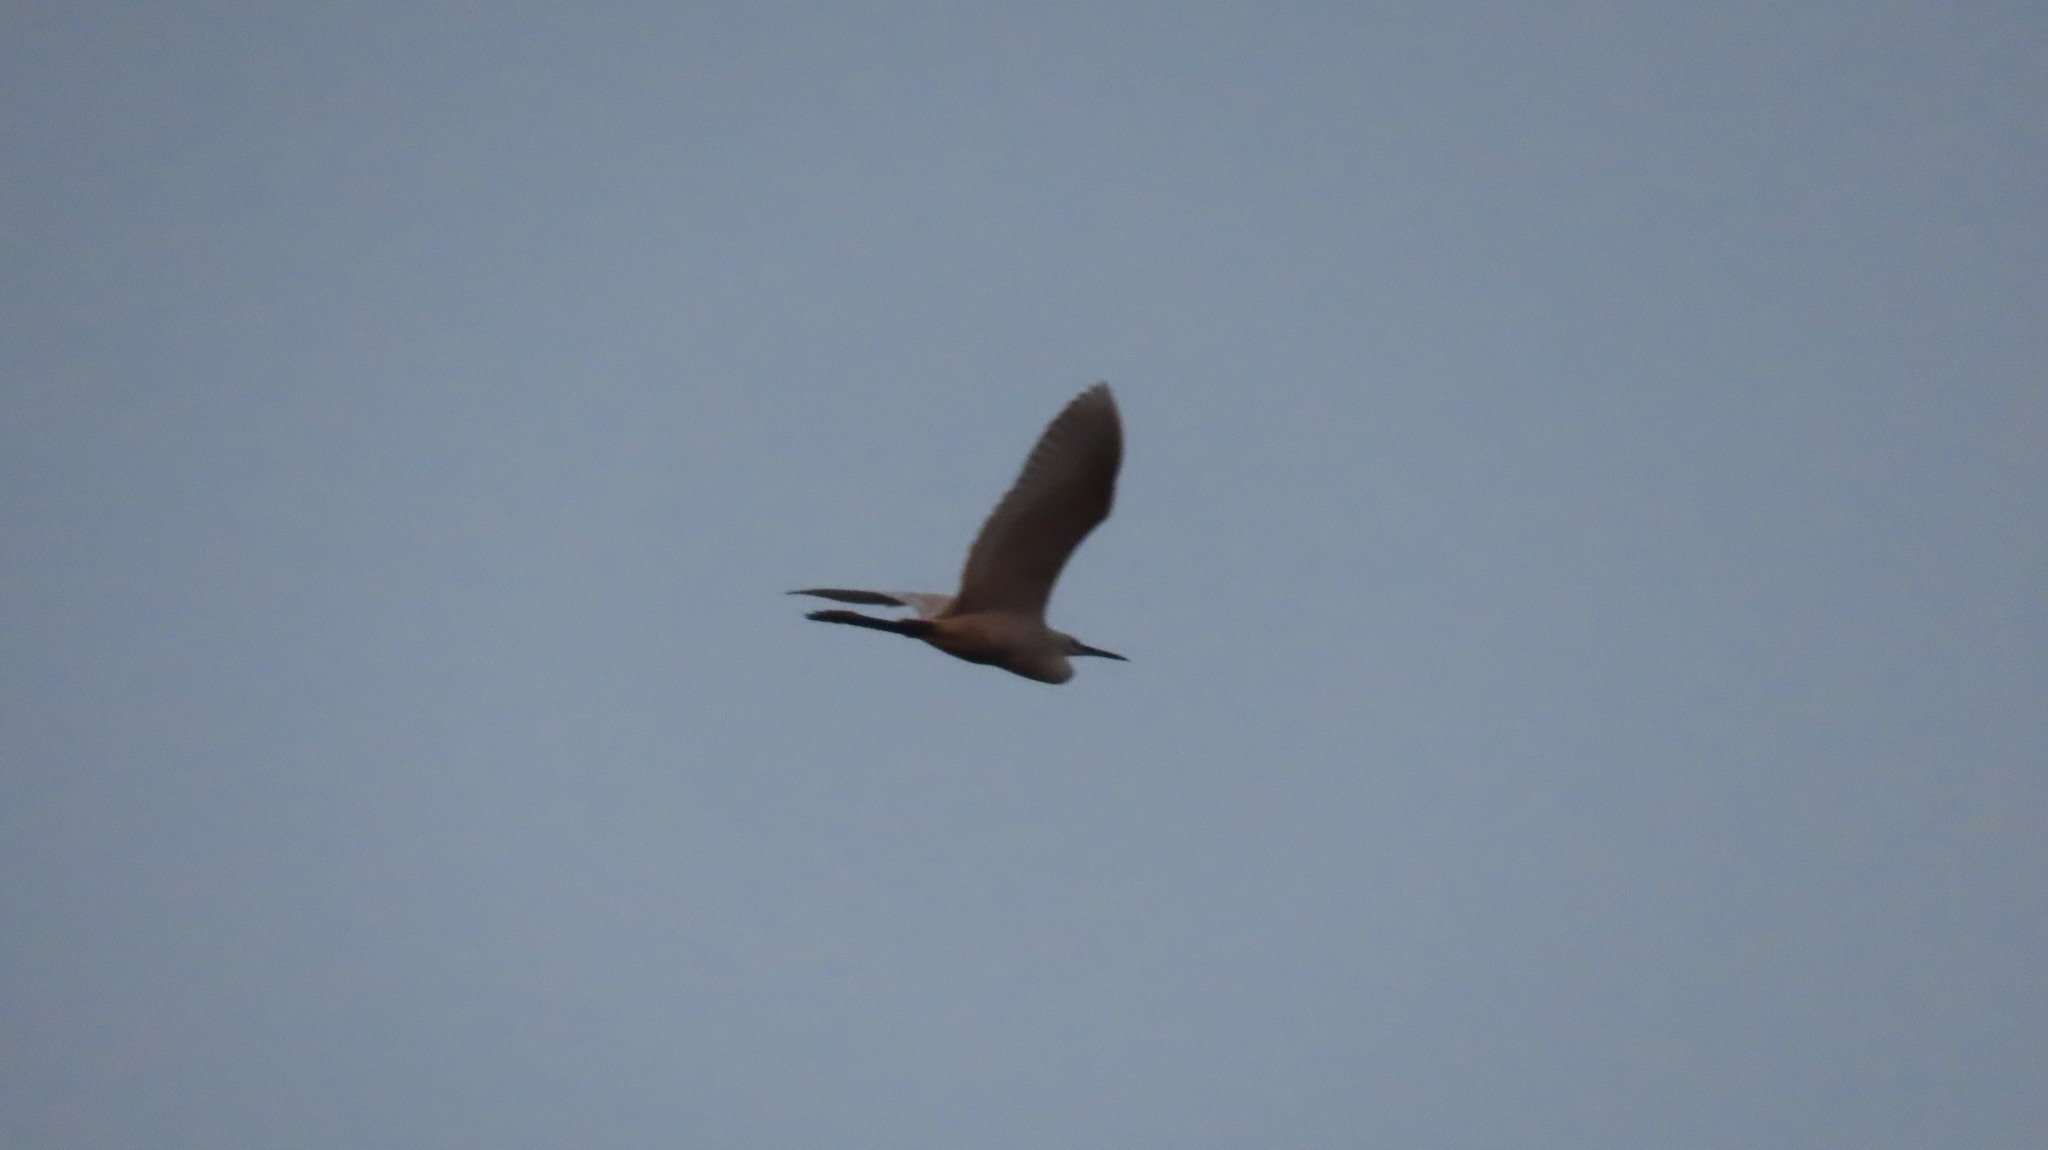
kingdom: Animalia
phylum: Chordata
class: Aves
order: Pelecaniformes
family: Ardeidae
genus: Egretta
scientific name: Egretta garzetta
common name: Little egret
